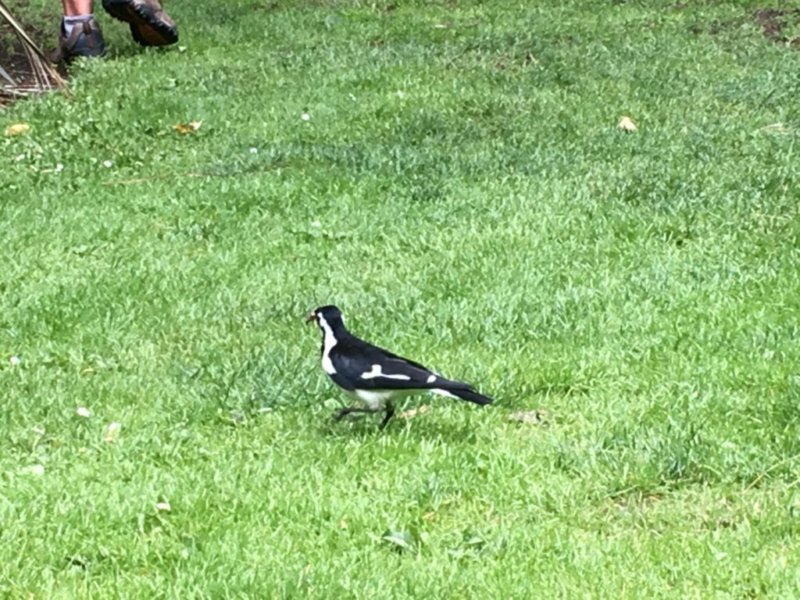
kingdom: Animalia
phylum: Chordata
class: Aves
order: Passeriformes
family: Monarchidae
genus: Grallina
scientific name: Grallina cyanoleuca
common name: Magpie-lark
